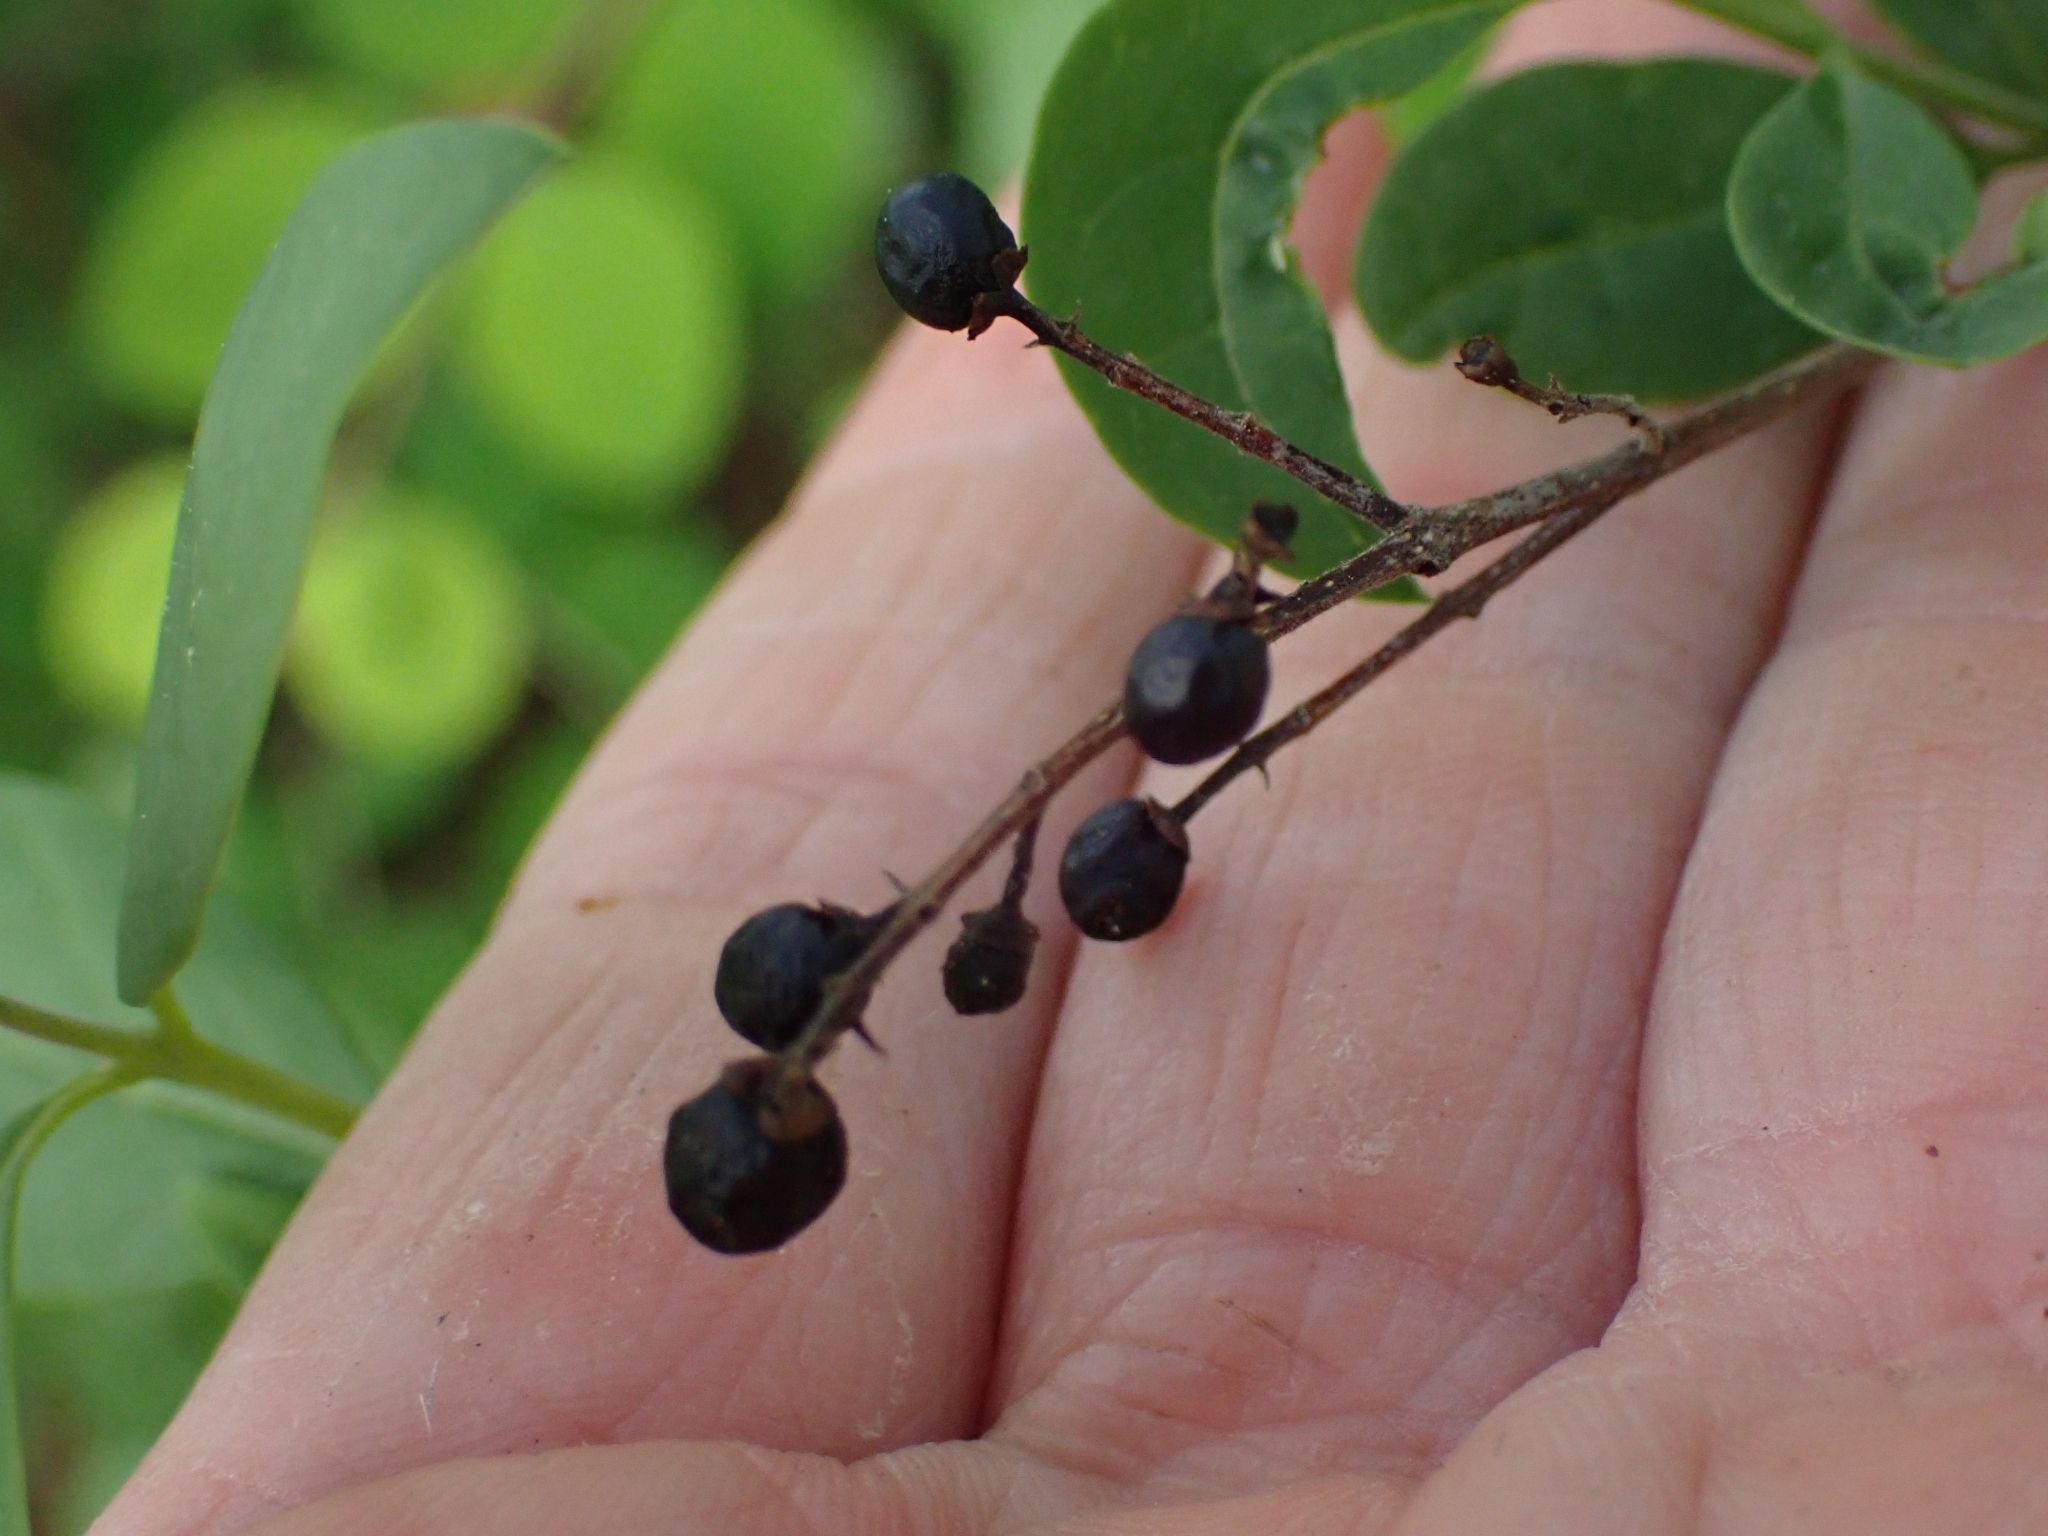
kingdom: Plantae
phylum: Tracheophyta
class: Magnoliopsida
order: Lamiales
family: Oleaceae
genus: Ligustrum
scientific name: Ligustrum vulgare
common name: Wild privet
